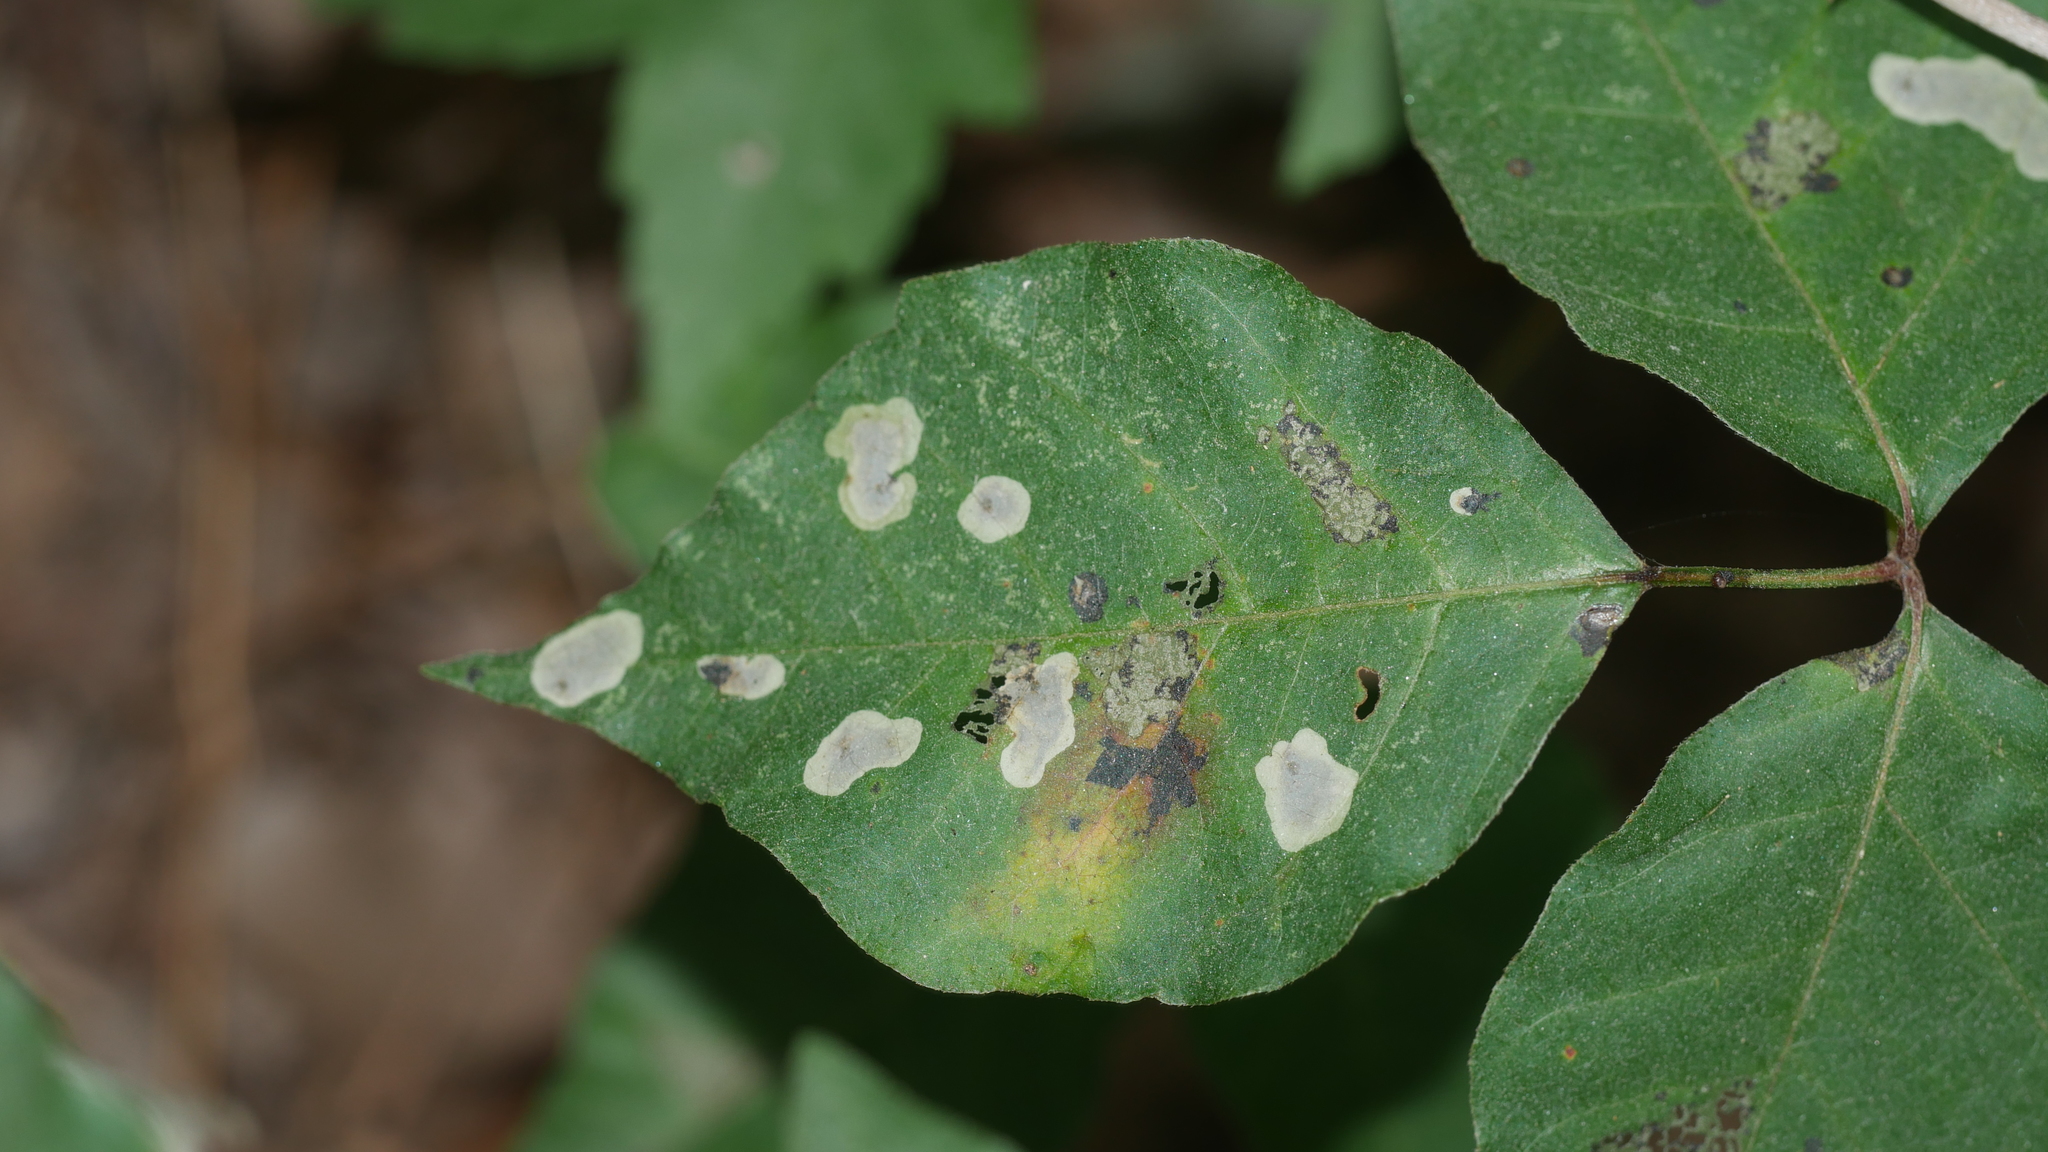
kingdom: Animalia
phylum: Arthropoda
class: Insecta
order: Lepidoptera
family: Gracillariidae
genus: Cameraria
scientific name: Cameraria guttifinitella
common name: Poison ivy leaf-miner moth
